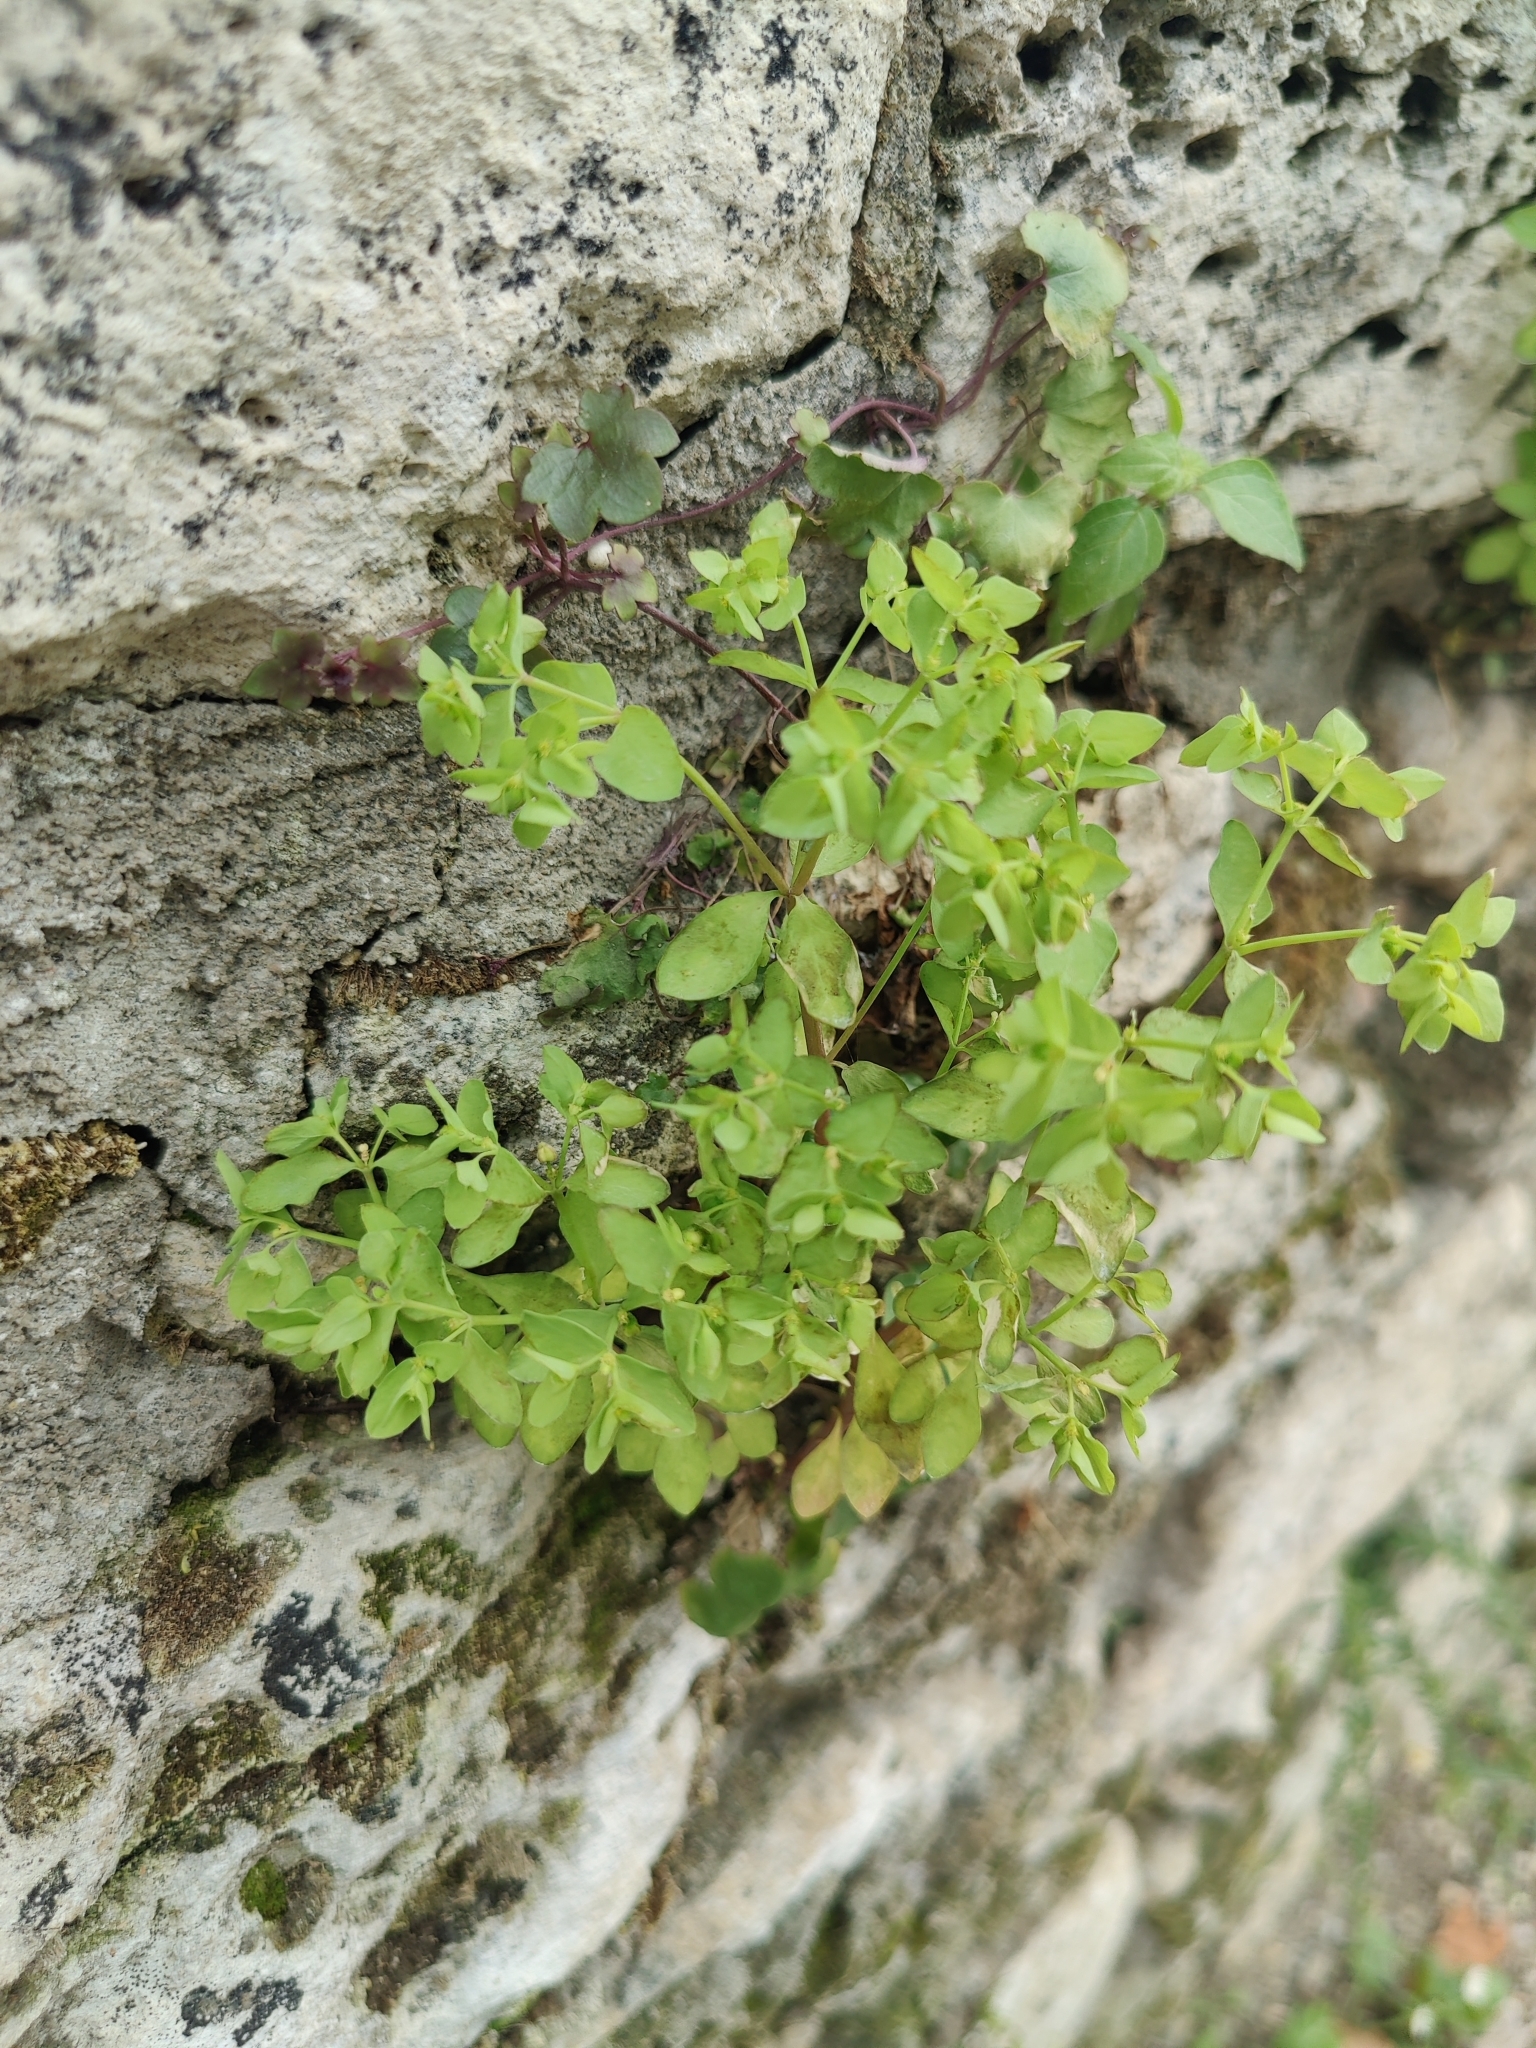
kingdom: Plantae
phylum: Tracheophyta
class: Magnoliopsida
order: Malpighiales
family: Euphorbiaceae
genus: Euphorbia
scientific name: Euphorbia peplus
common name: Petty spurge
